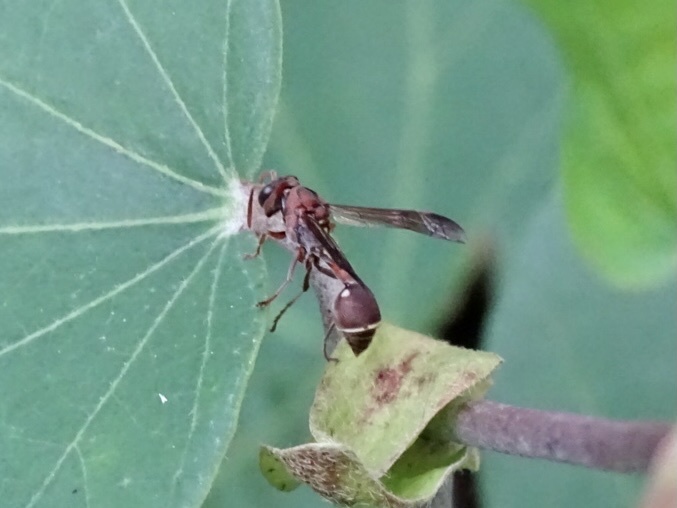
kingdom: Animalia
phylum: Arthropoda
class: Insecta
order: Hymenoptera
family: Vespidae
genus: Ropalidia
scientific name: Ropalidia hongkongensis
